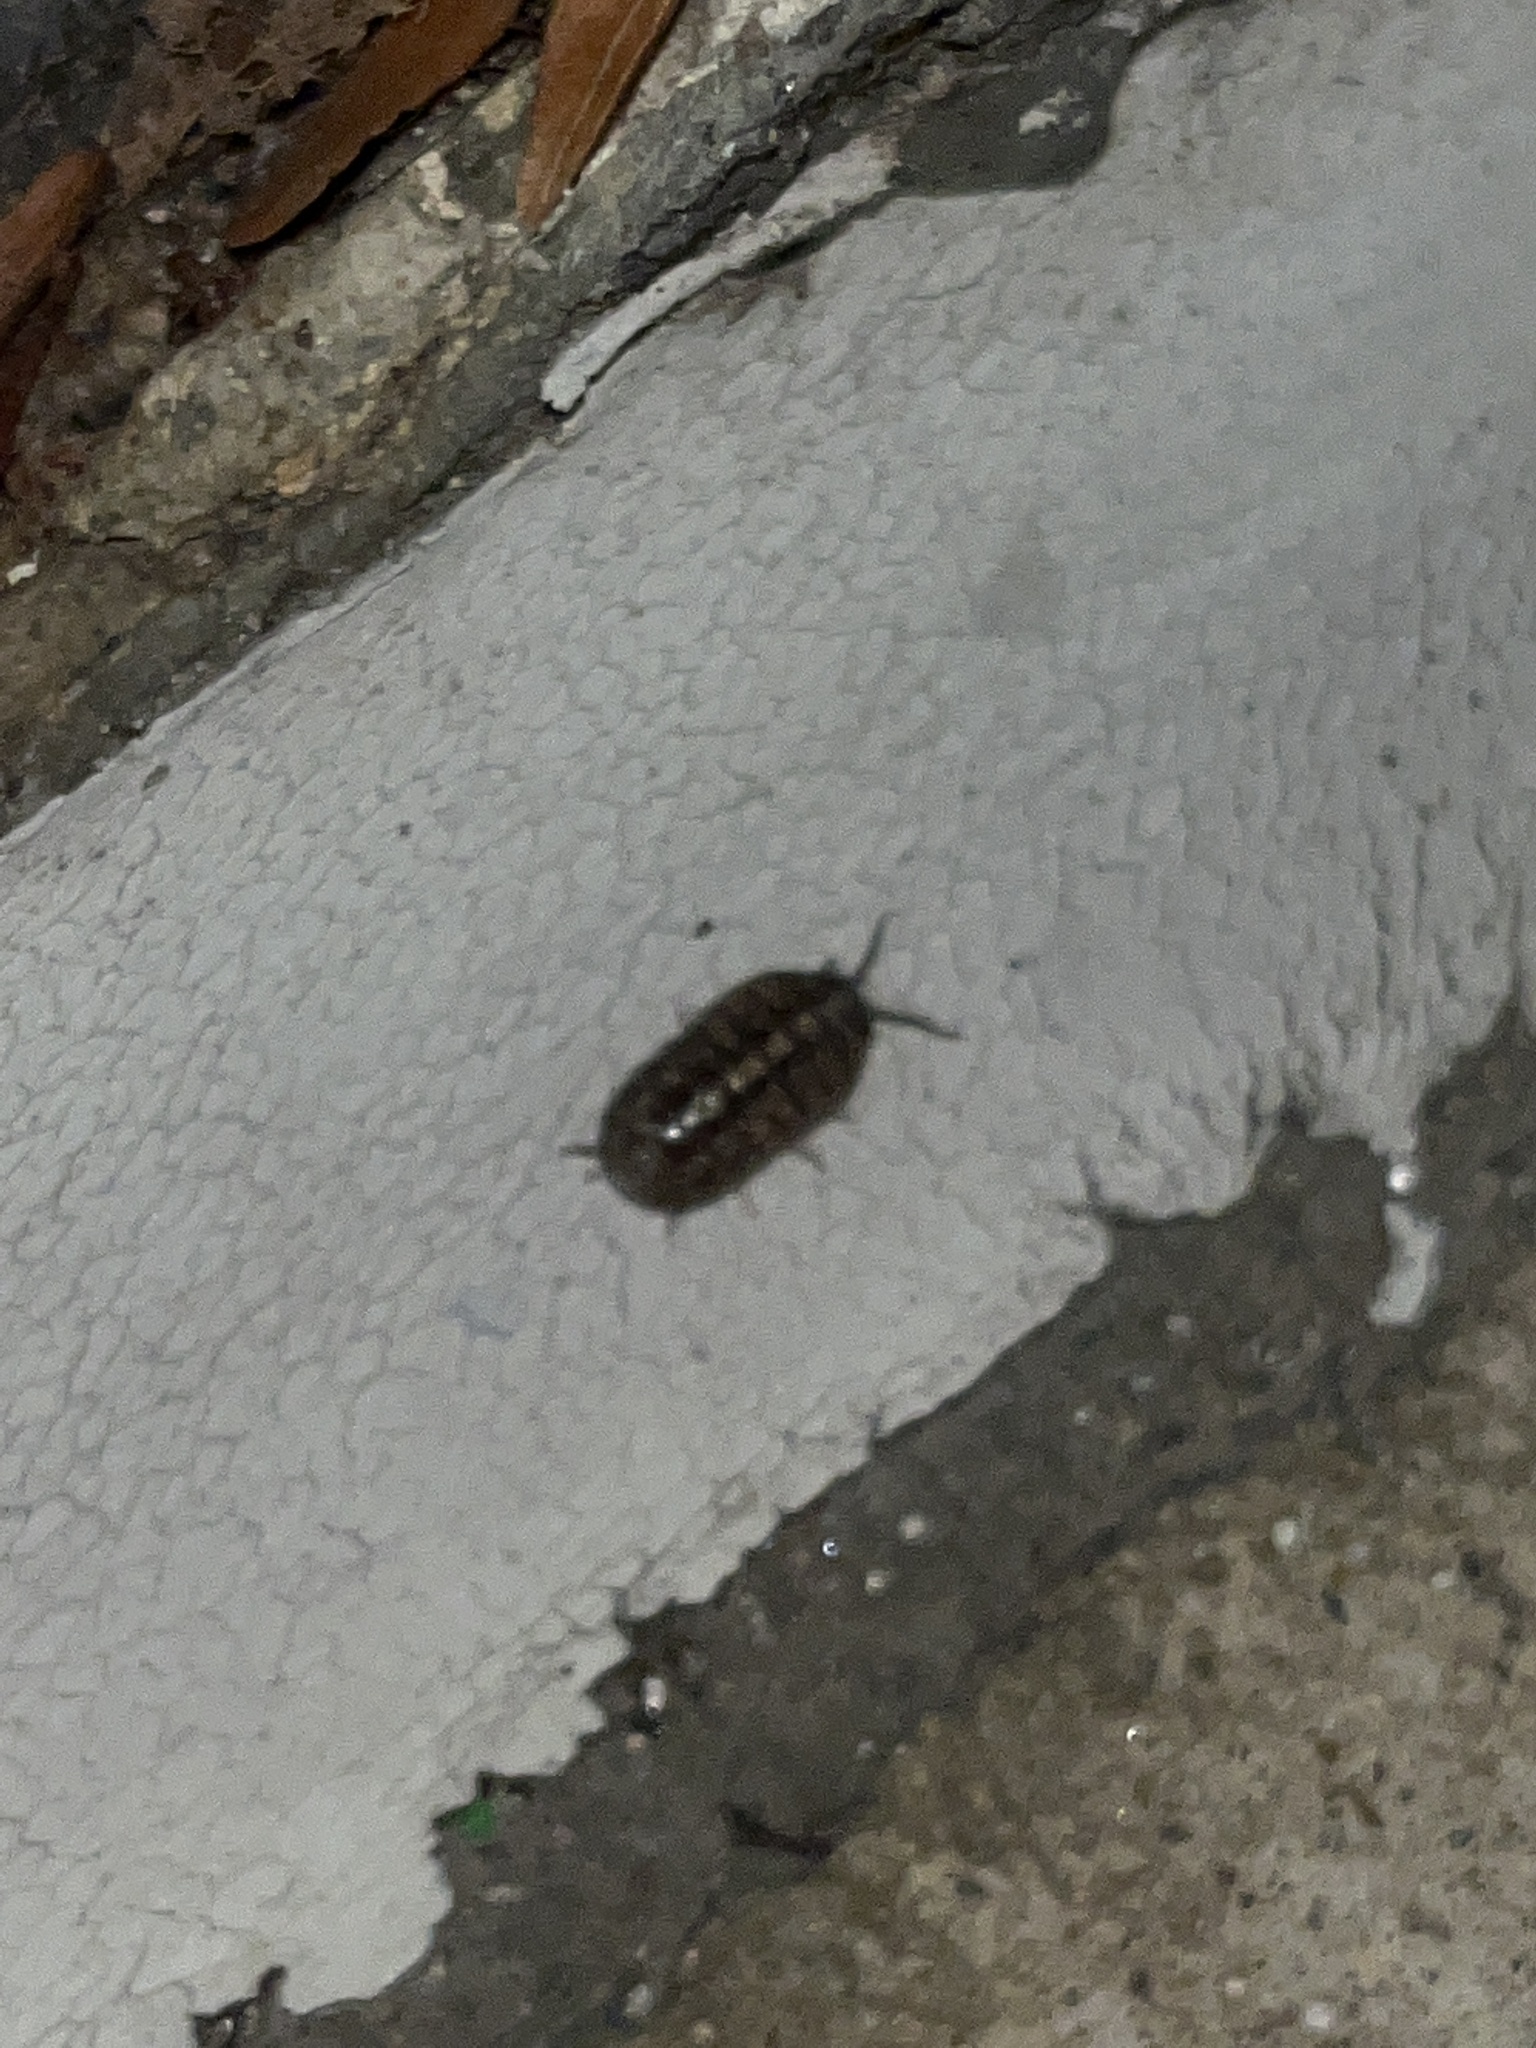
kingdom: Animalia
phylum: Arthropoda
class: Malacostraca
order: Isopoda
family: Armadillidiidae
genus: Armadillidium
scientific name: Armadillidium vulgare
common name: Common pill woodlouse
